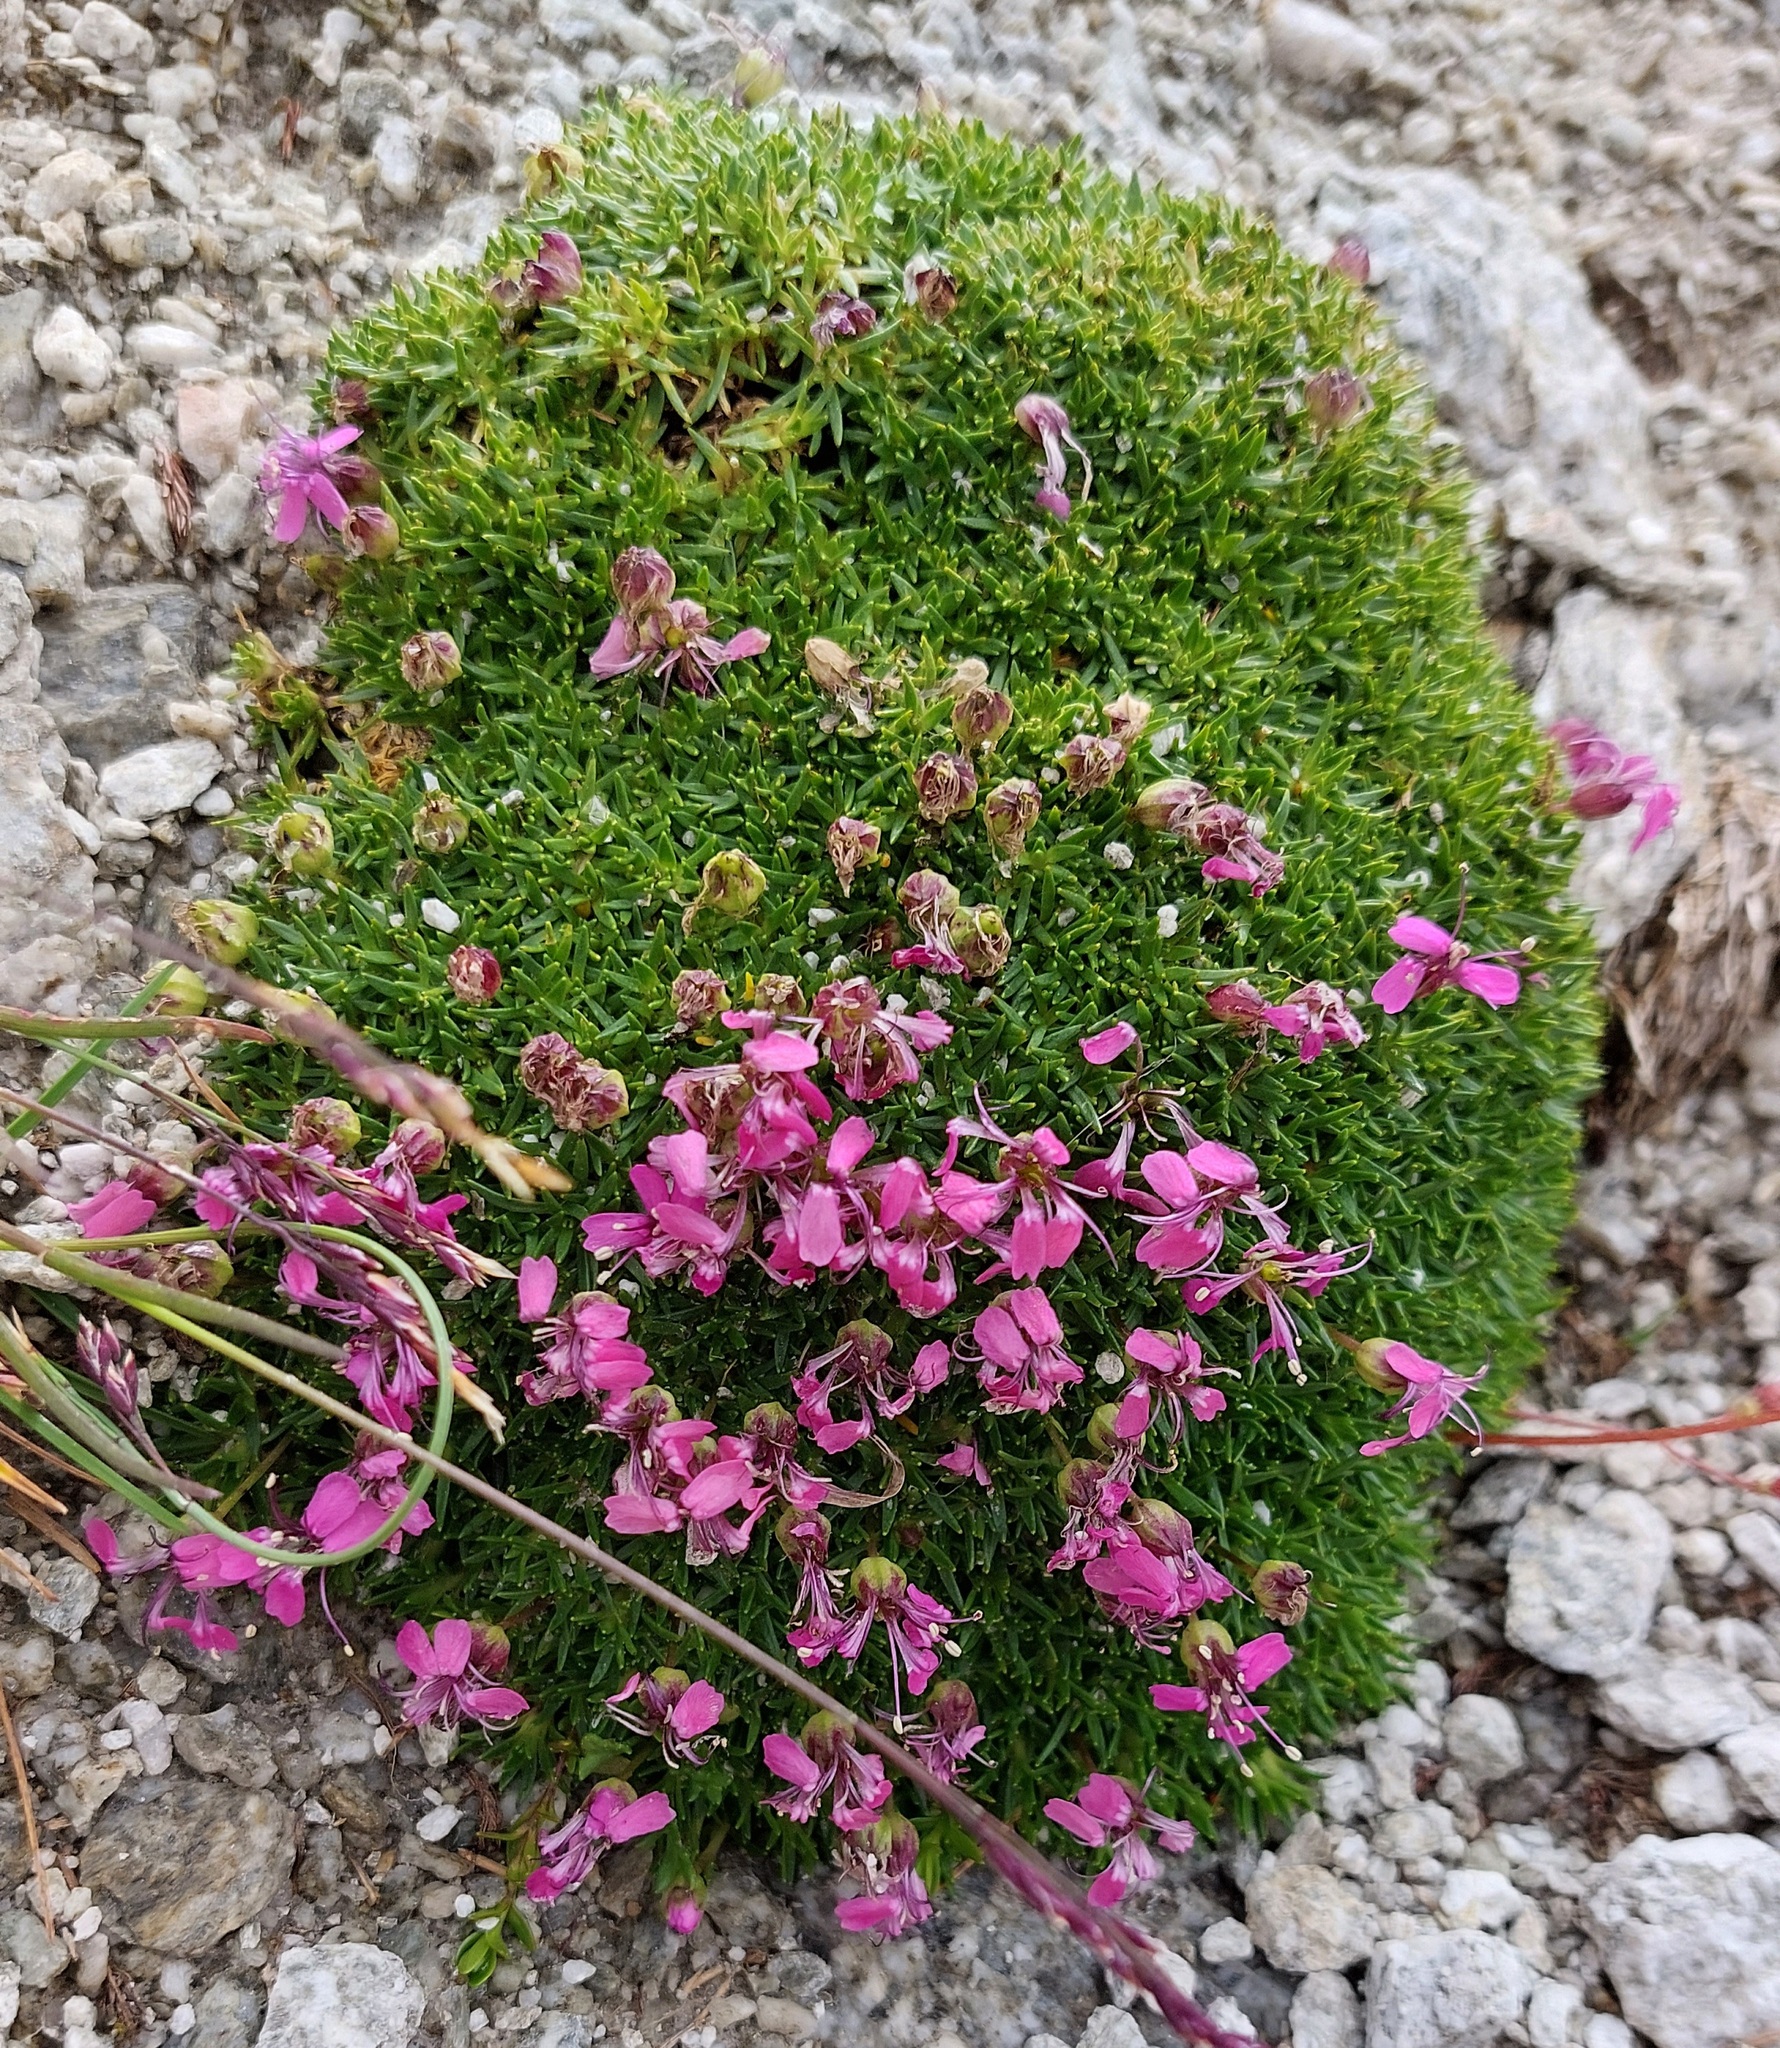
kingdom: Plantae
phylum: Tracheophyta
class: Magnoliopsida
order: Caryophyllales
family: Caryophyllaceae
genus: Silene
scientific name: Silene acaulis
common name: Moss campion
